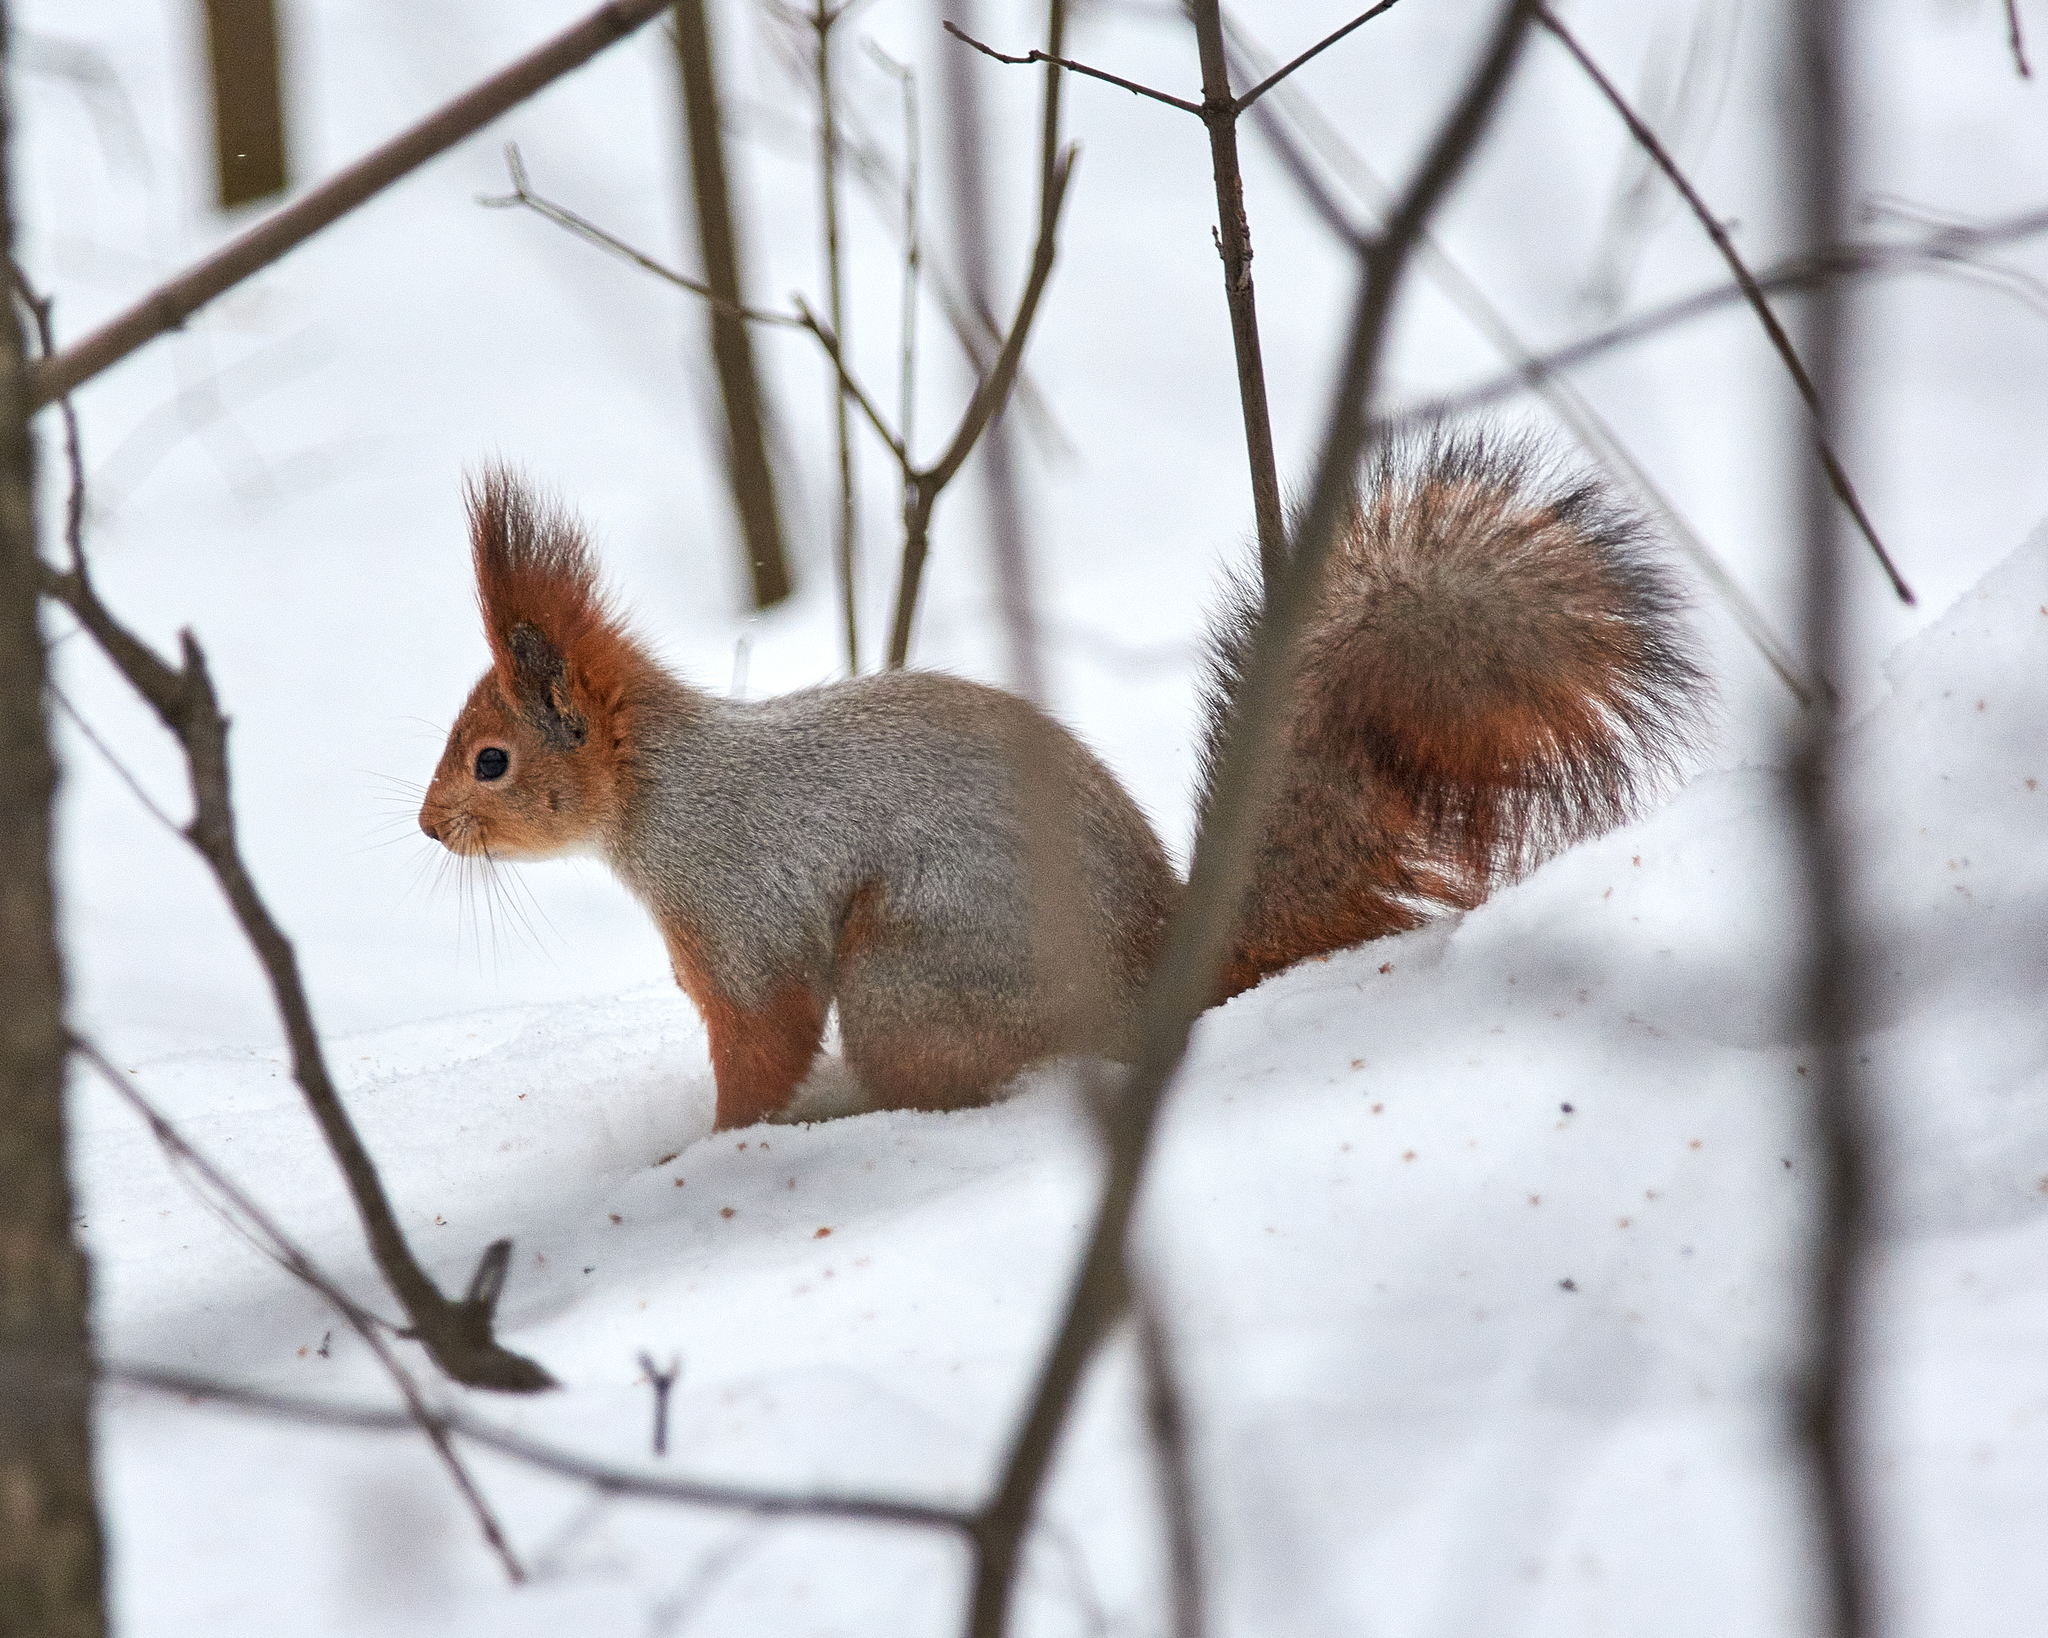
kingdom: Animalia
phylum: Chordata
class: Mammalia
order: Rodentia
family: Sciuridae
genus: Sciurus
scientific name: Sciurus vulgaris
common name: Eurasian red squirrel
